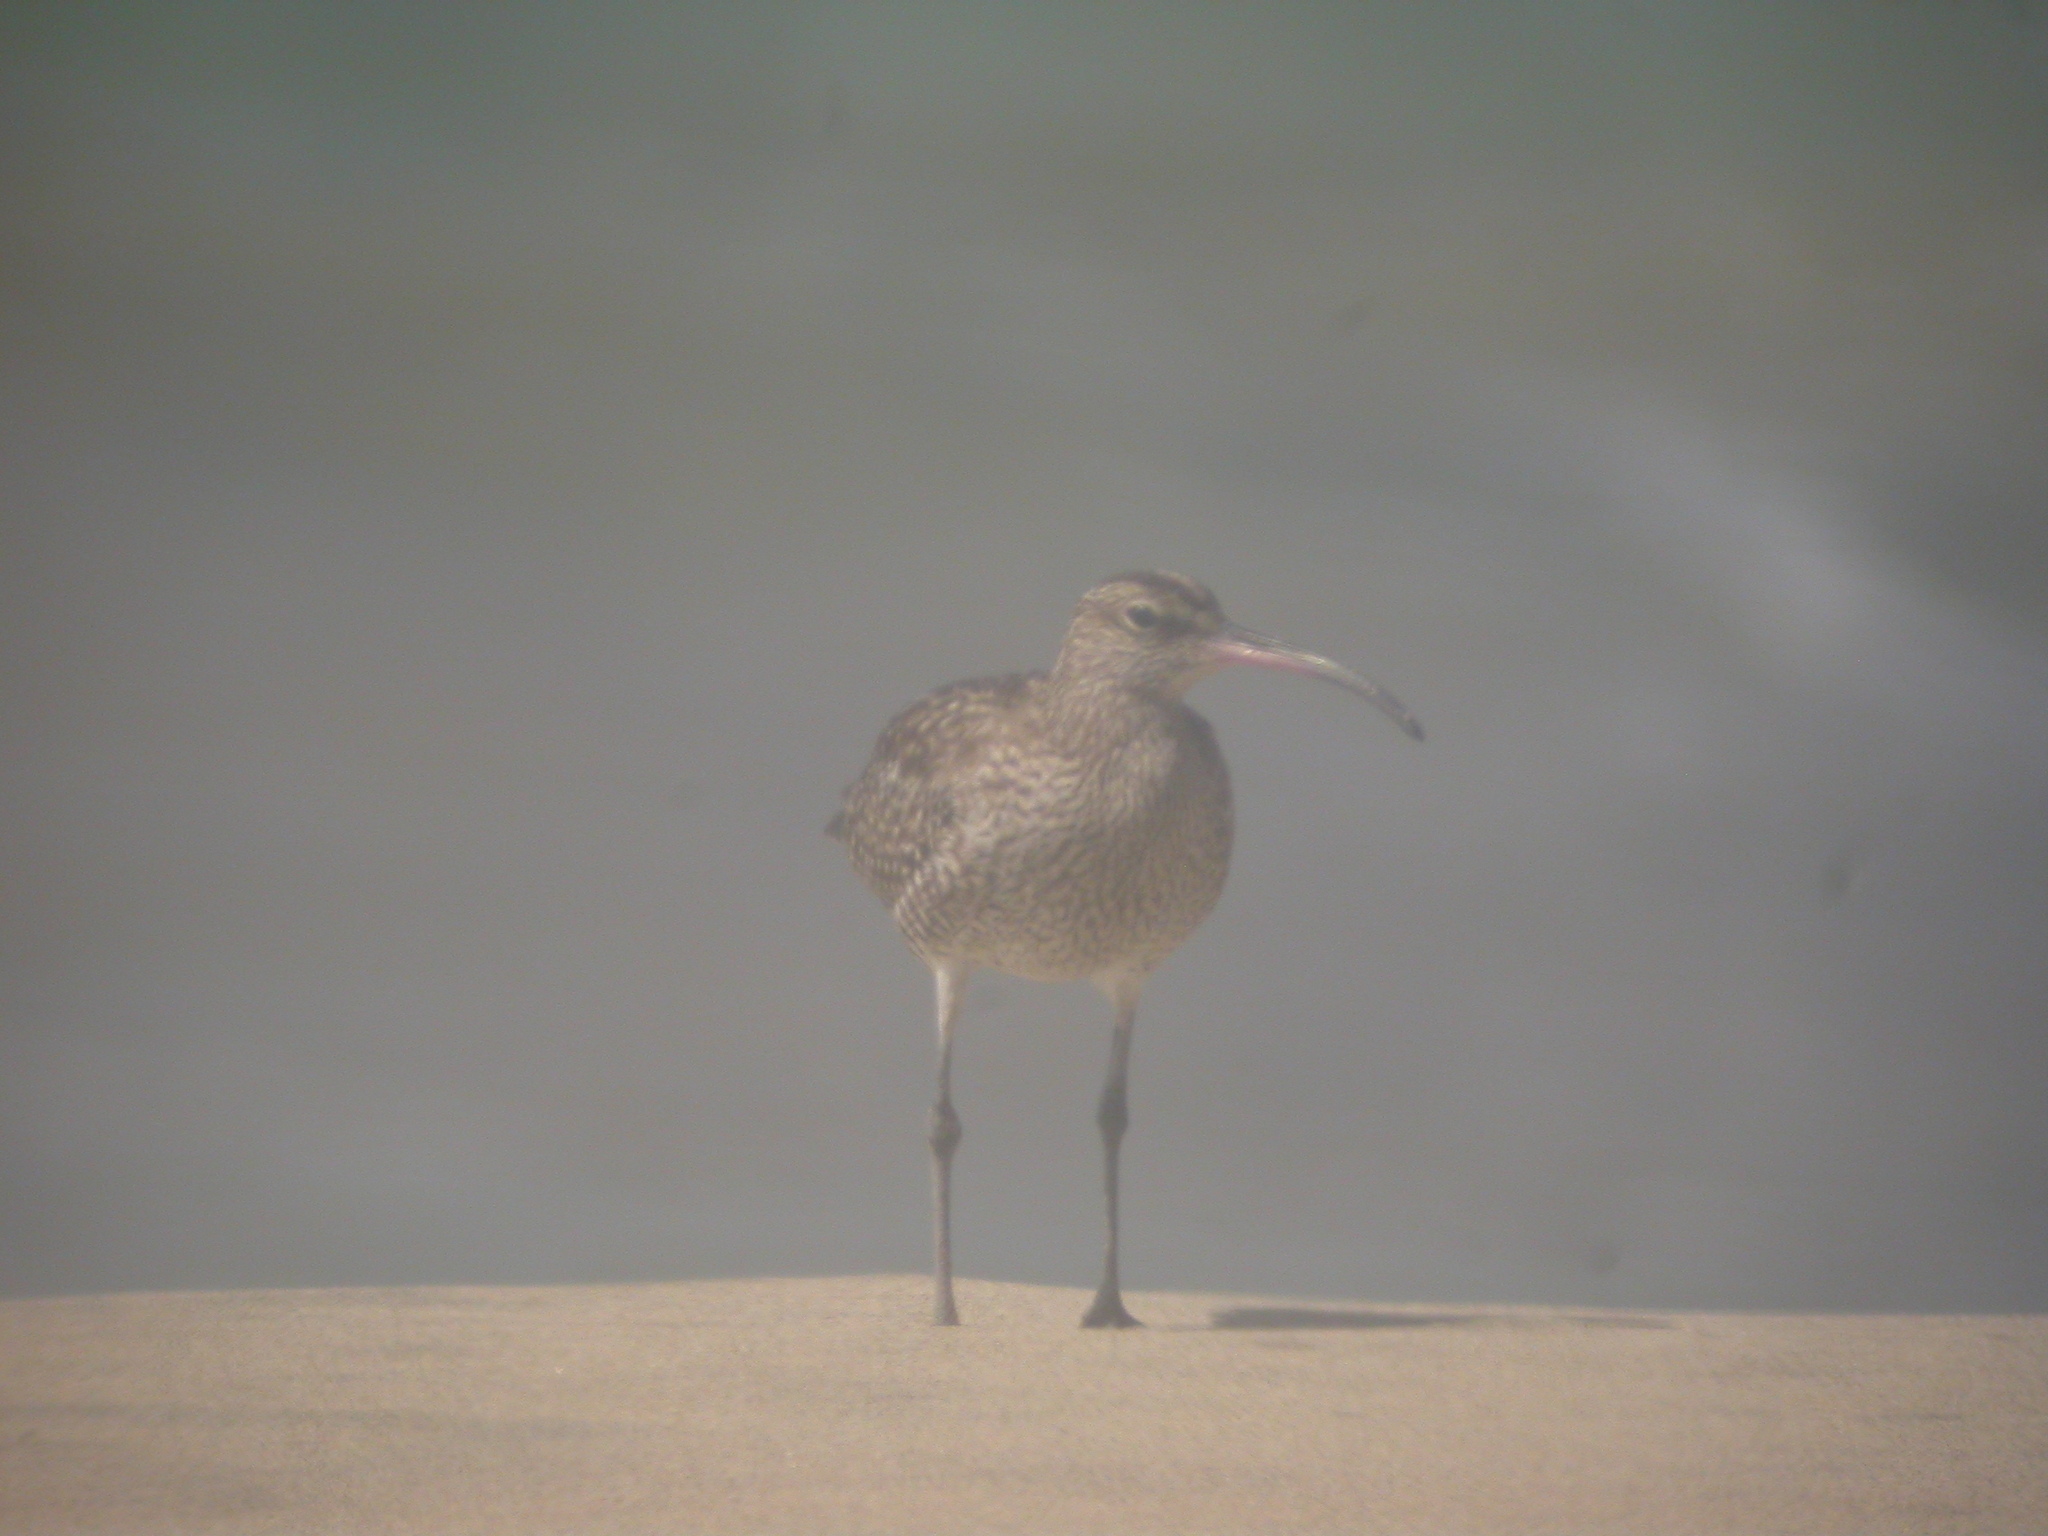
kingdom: Animalia
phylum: Chordata
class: Aves
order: Charadriiformes
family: Scolopacidae
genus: Numenius
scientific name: Numenius phaeopus
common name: Whimbrel
